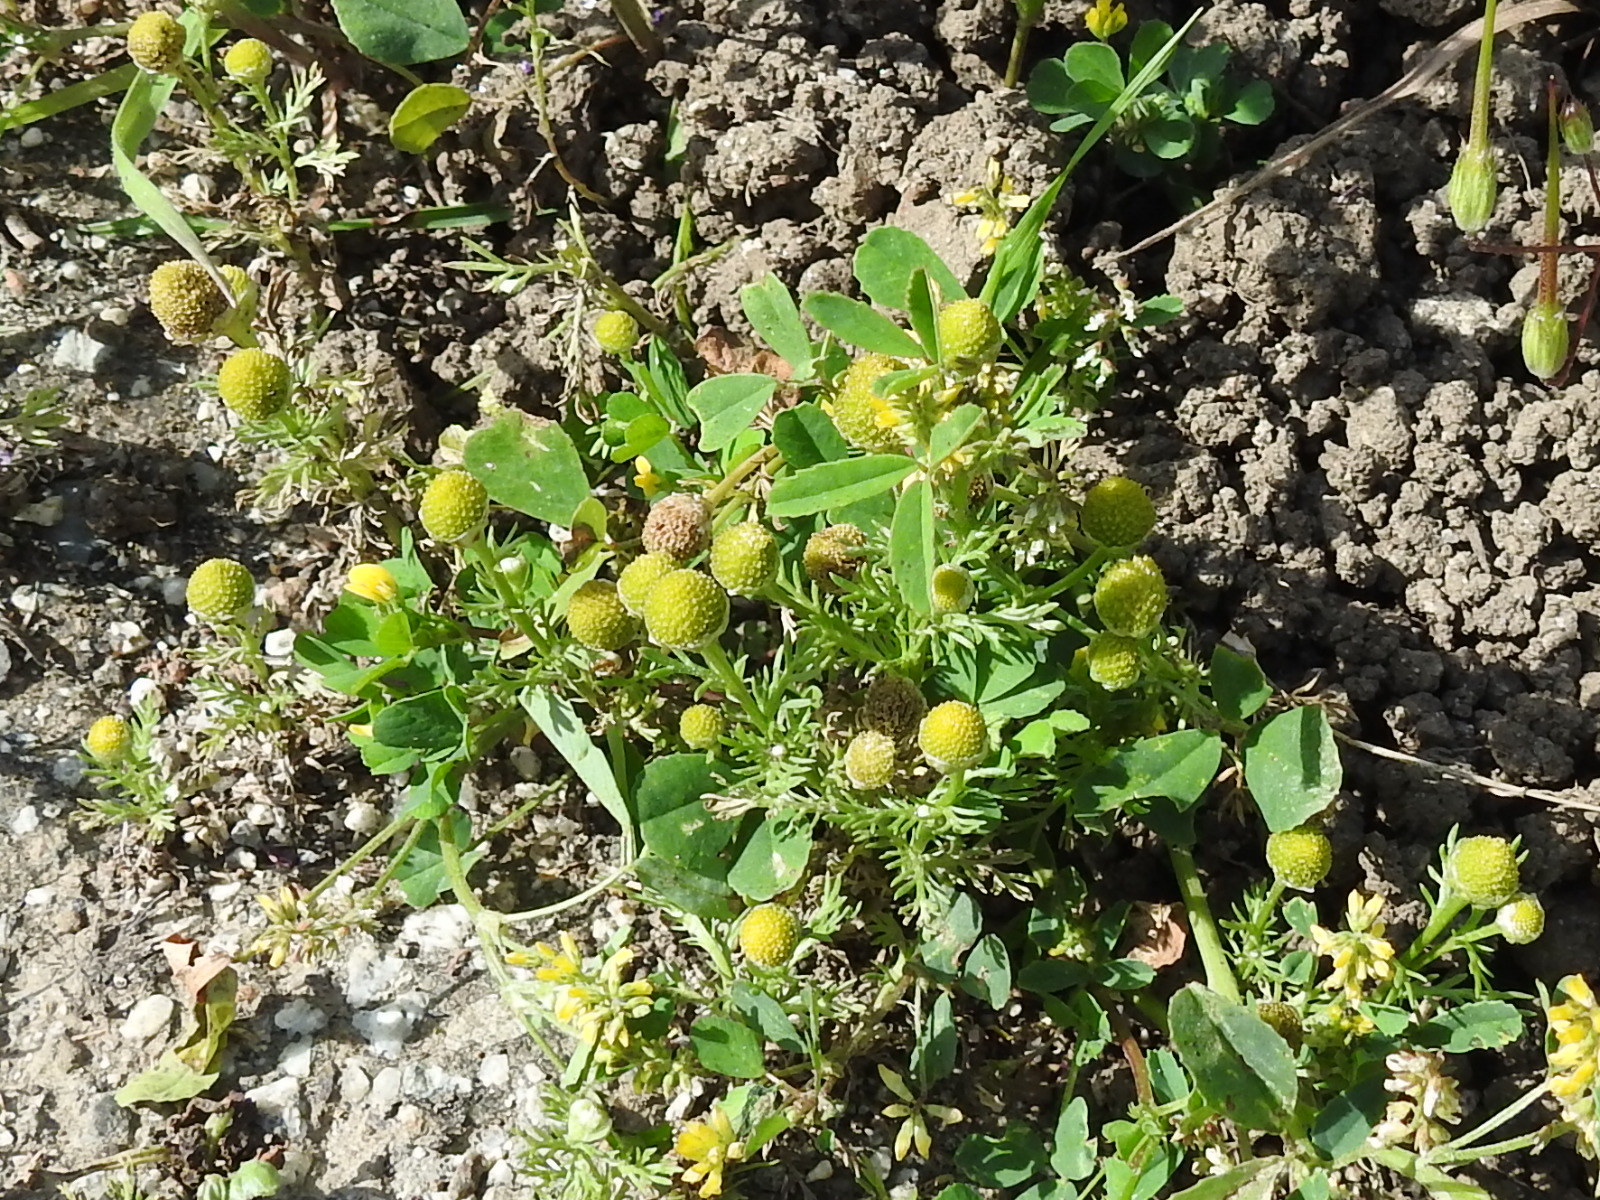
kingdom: Plantae
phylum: Tracheophyta
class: Magnoliopsida
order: Asterales
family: Asteraceae
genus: Matricaria
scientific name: Matricaria discoidea
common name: Disc mayweed
